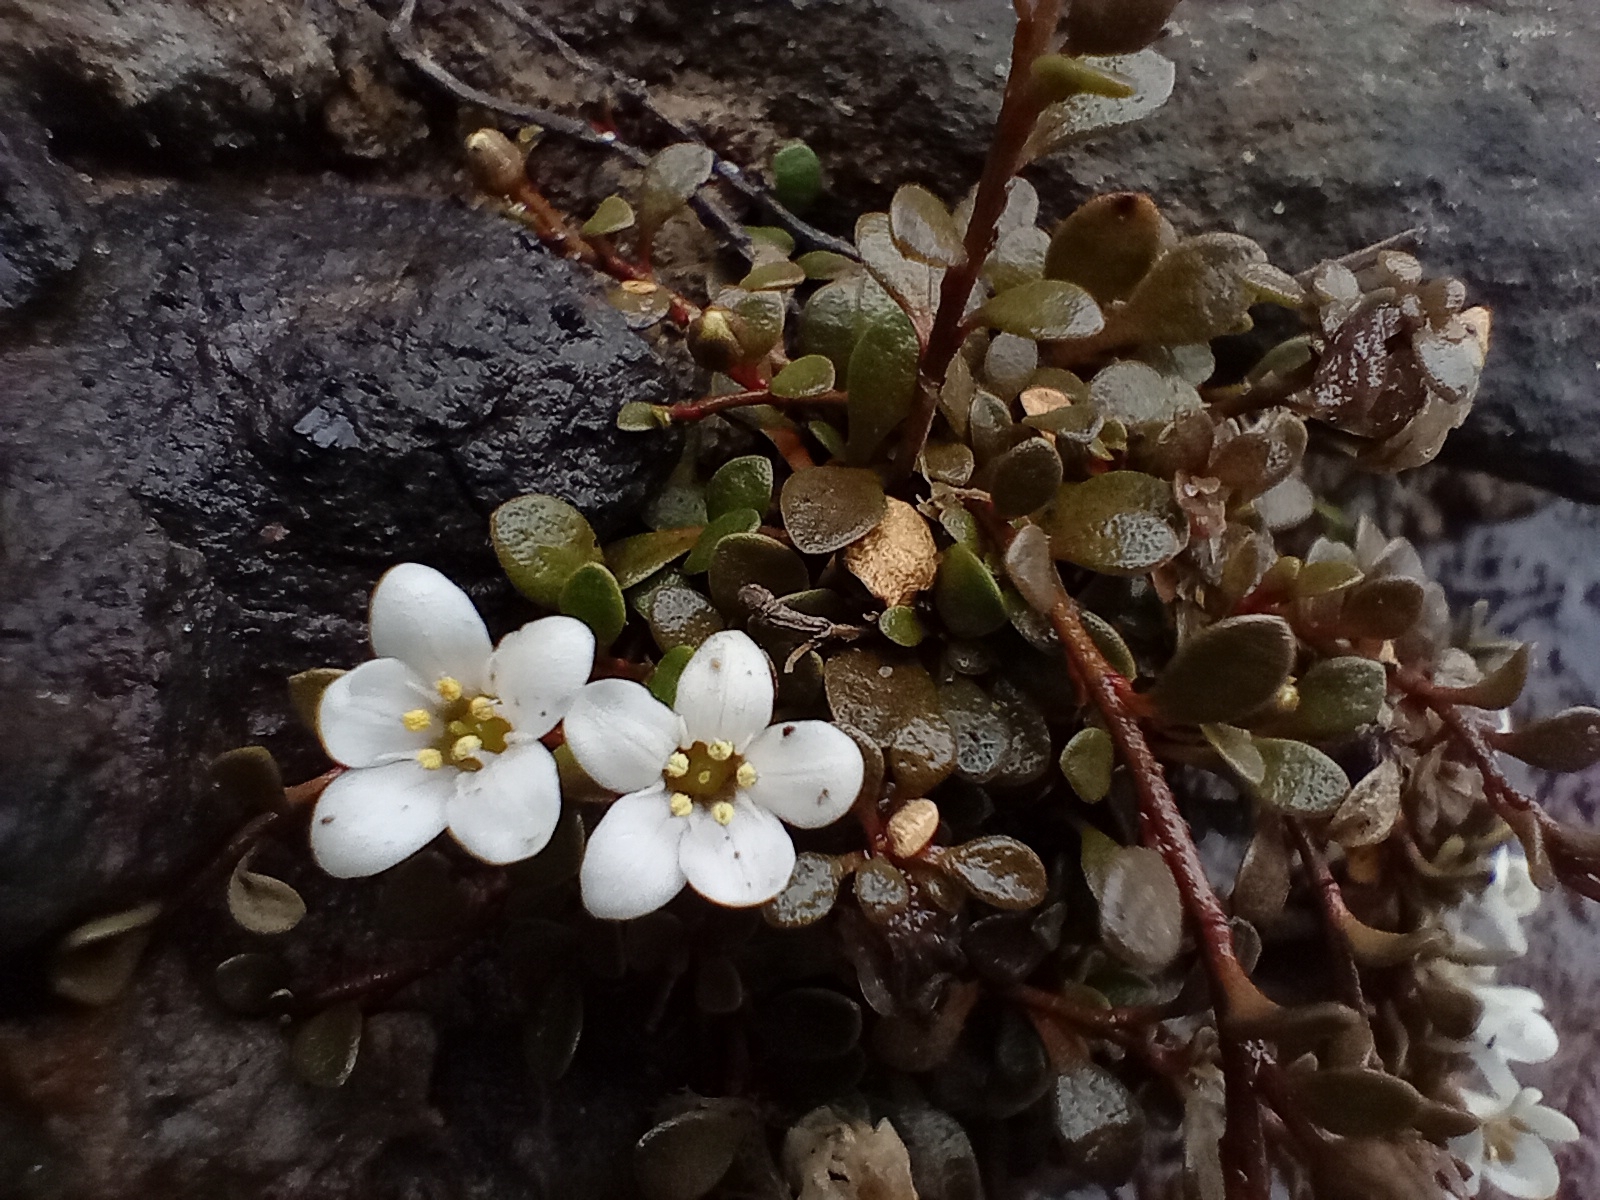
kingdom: Plantae
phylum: Tracheophyta
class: Magnoliopsida
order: Ericales
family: Primulaceae
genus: Samolus
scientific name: Samolus repens
